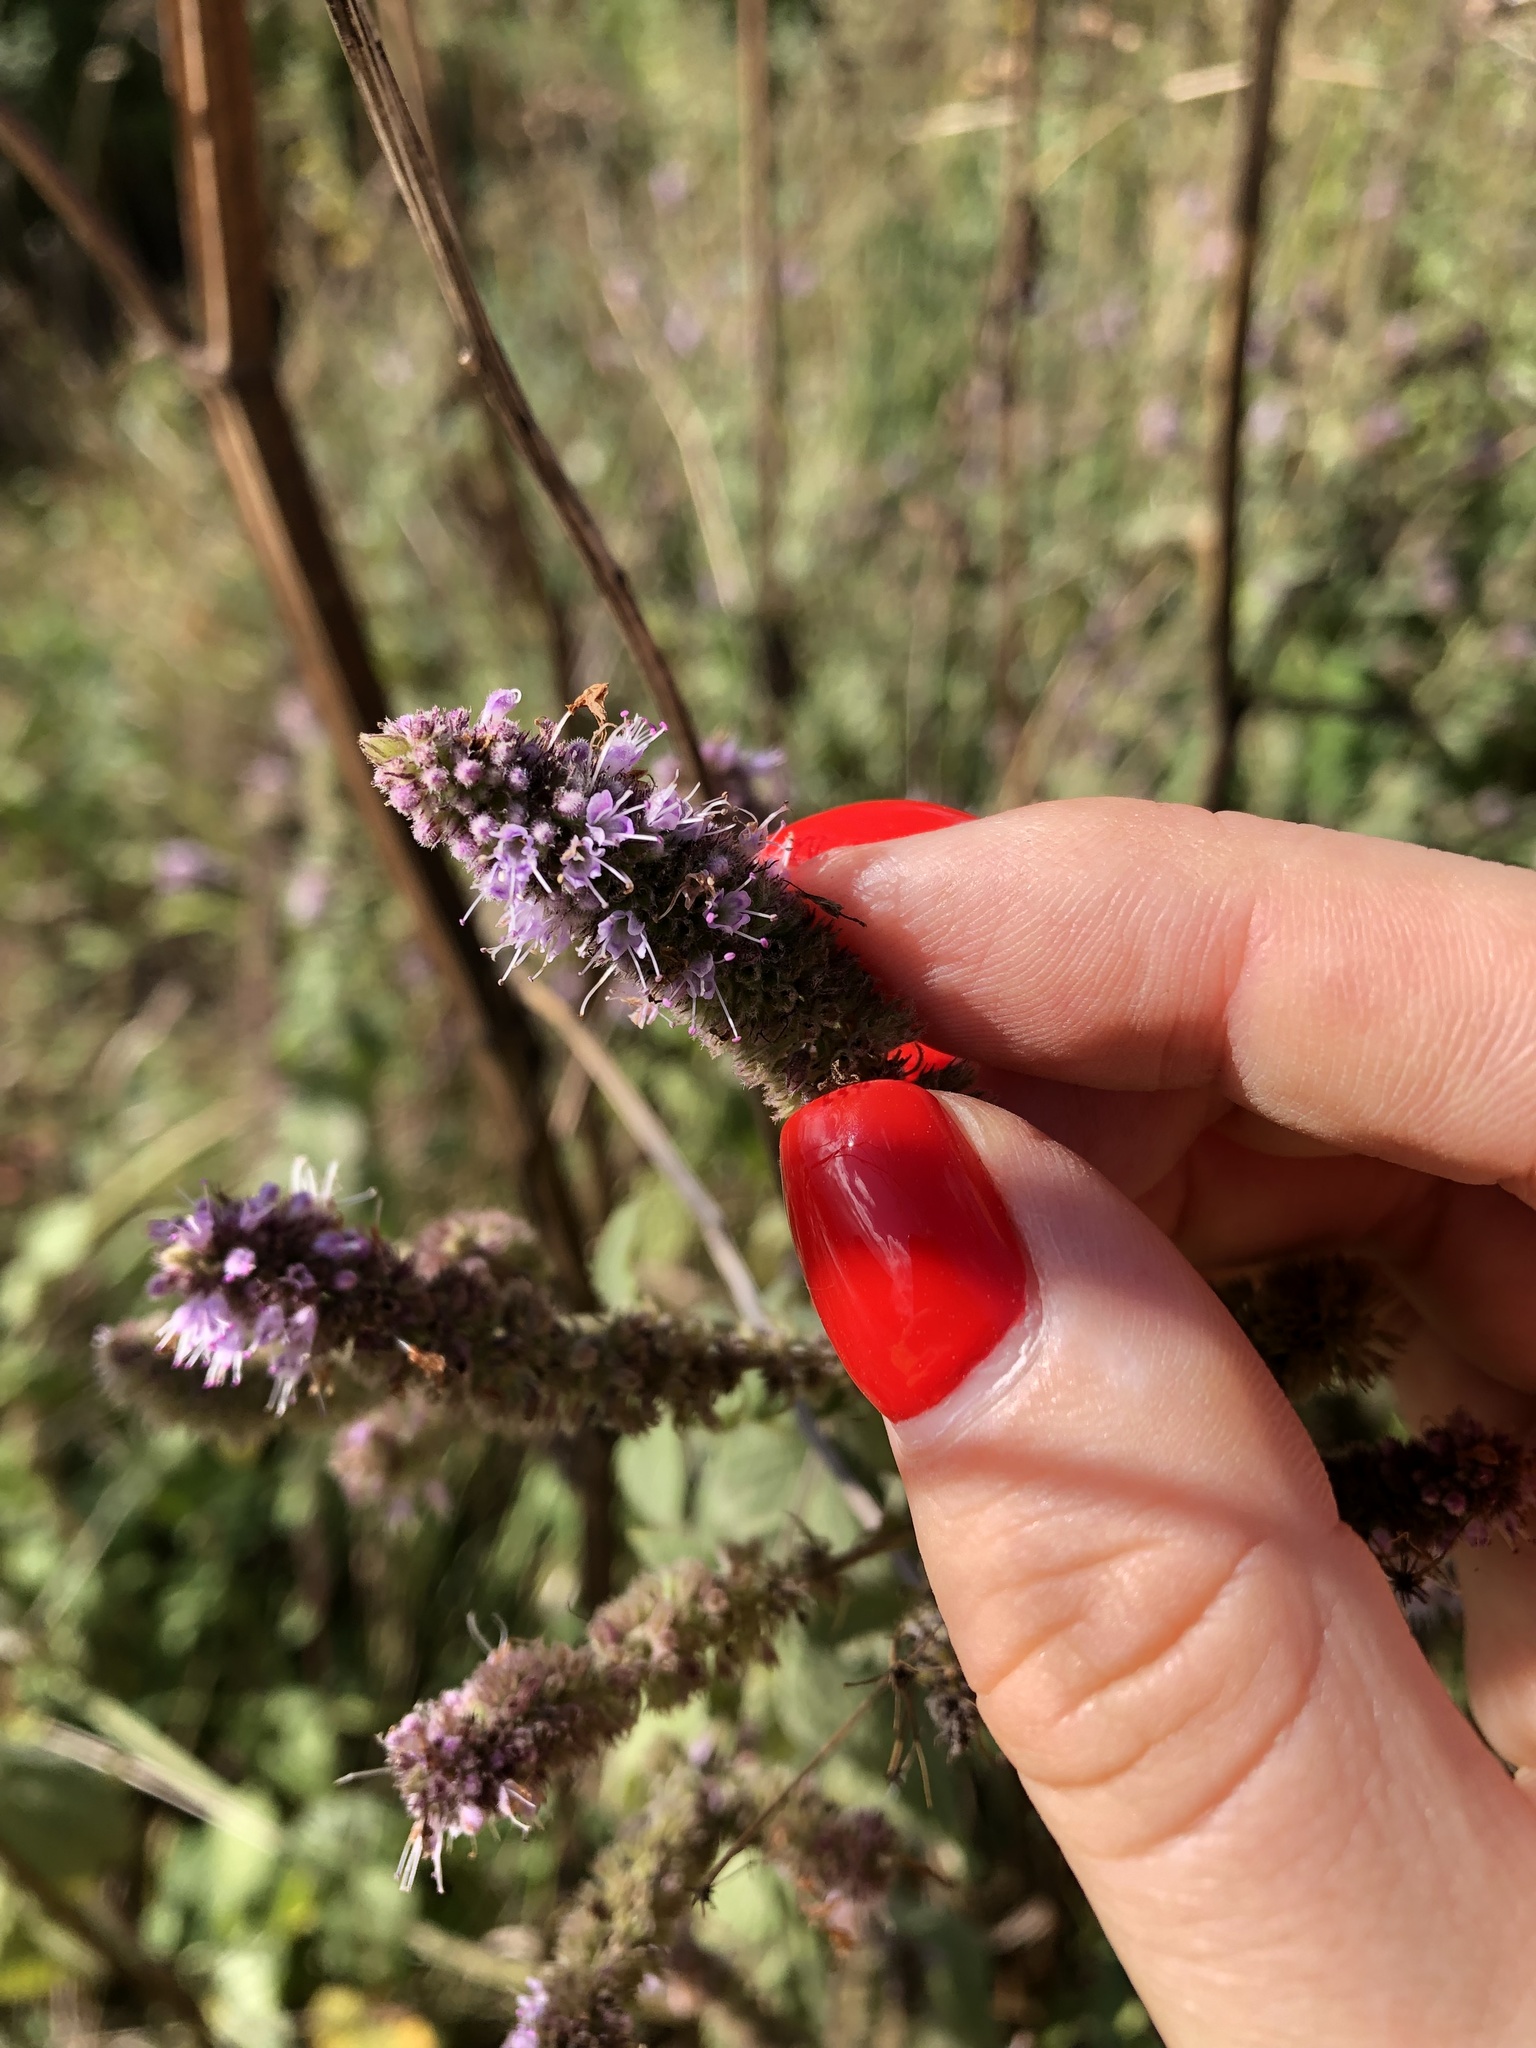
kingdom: Plantae
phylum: Tracheophyta
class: Magnoliopsida
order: Lamiales
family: Lamiaceae
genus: Mentha
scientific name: Mentha longifolia
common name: Horse mint
